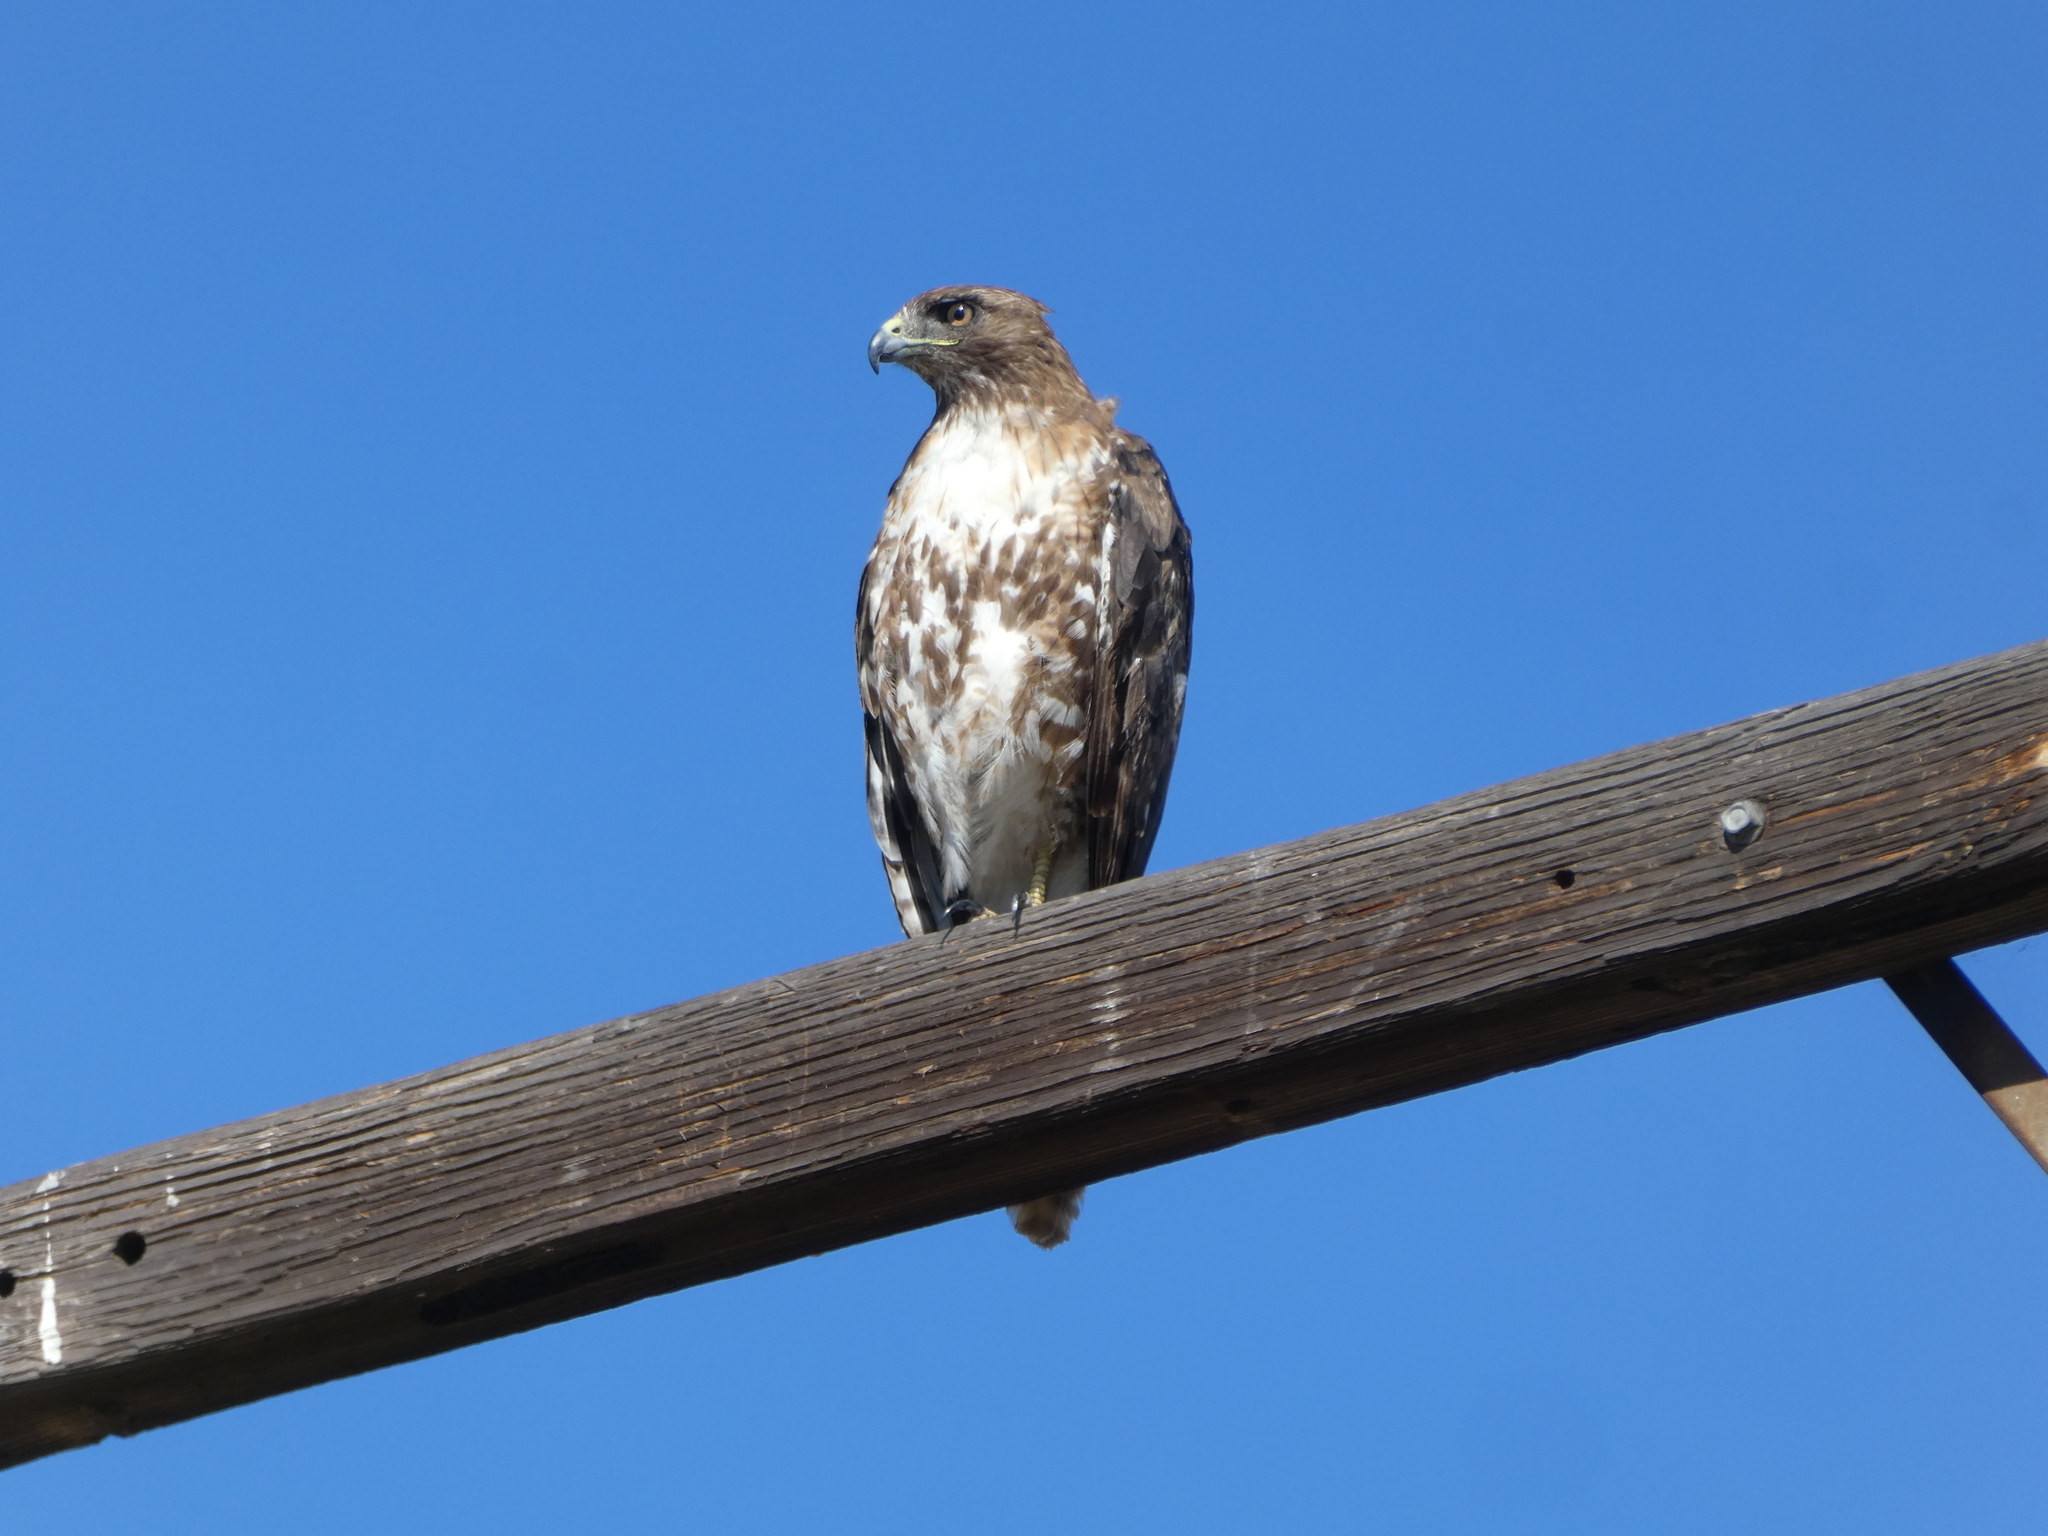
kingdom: Animalia
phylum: Chordata
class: Aves
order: Accipitriformes
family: Accipitridae
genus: Buteo
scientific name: Buteo jamaicensis
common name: Red-tailed hawk
